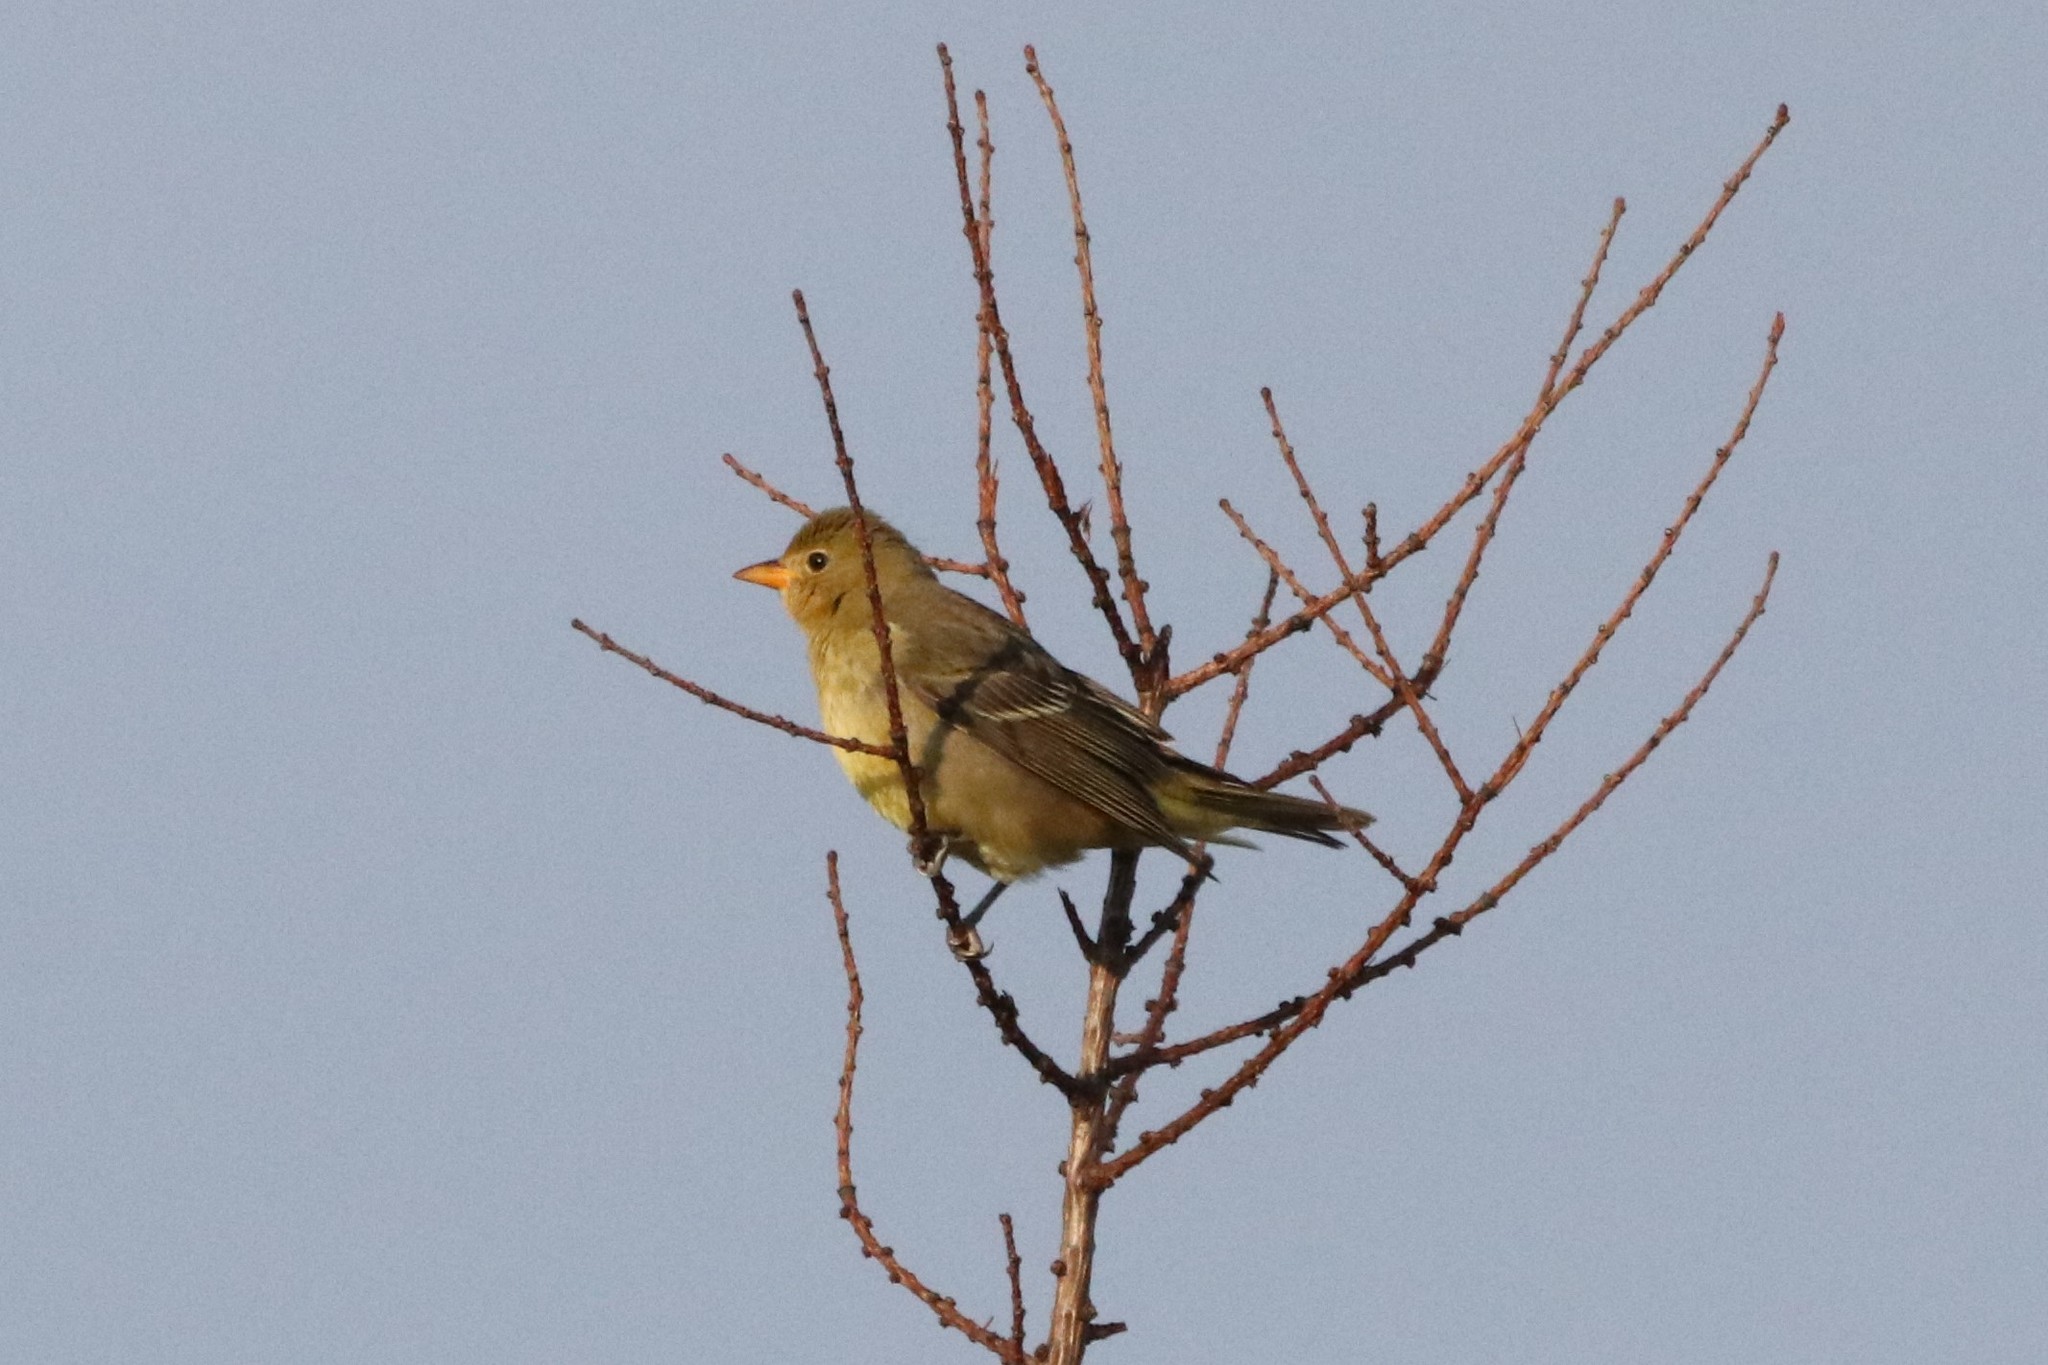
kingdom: Animalia
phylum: Chordata
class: Aves
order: Passeriformes
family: Cardinalidae
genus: Piranga
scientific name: Piranga ludoviciana
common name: Western tanager
